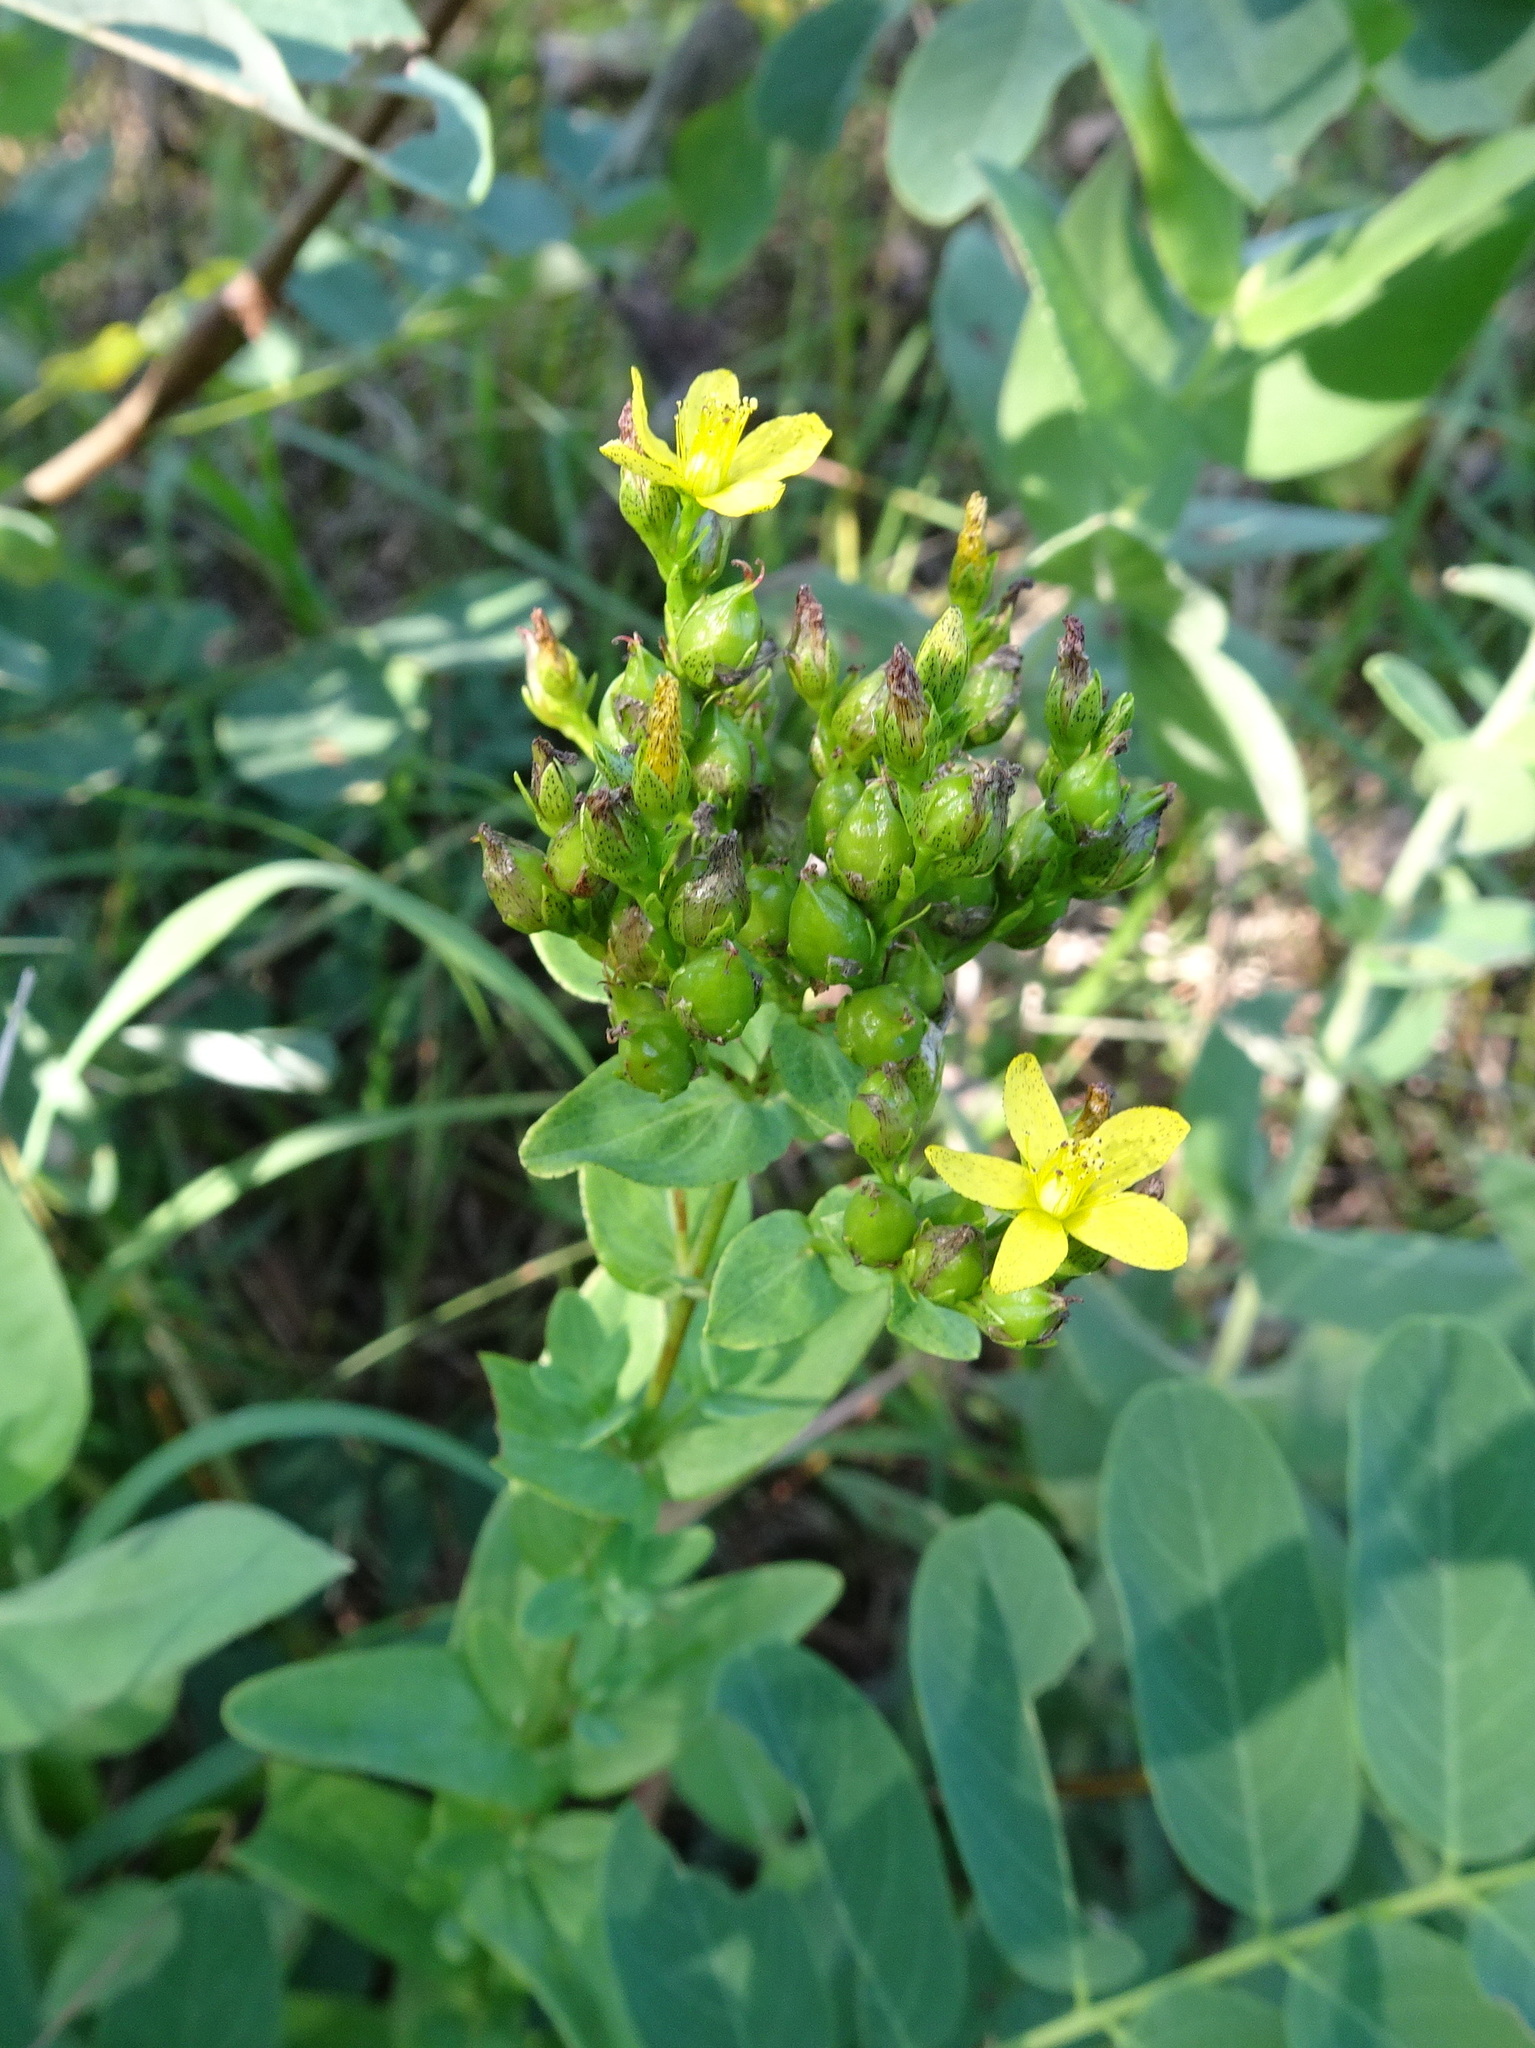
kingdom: Plantae
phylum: Tracheophyta
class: Magnoliopsida
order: Malpighiales
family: Hypericaceae
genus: Hypericum
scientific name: Hypericum punctatum
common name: Spotted st. john's-wort
